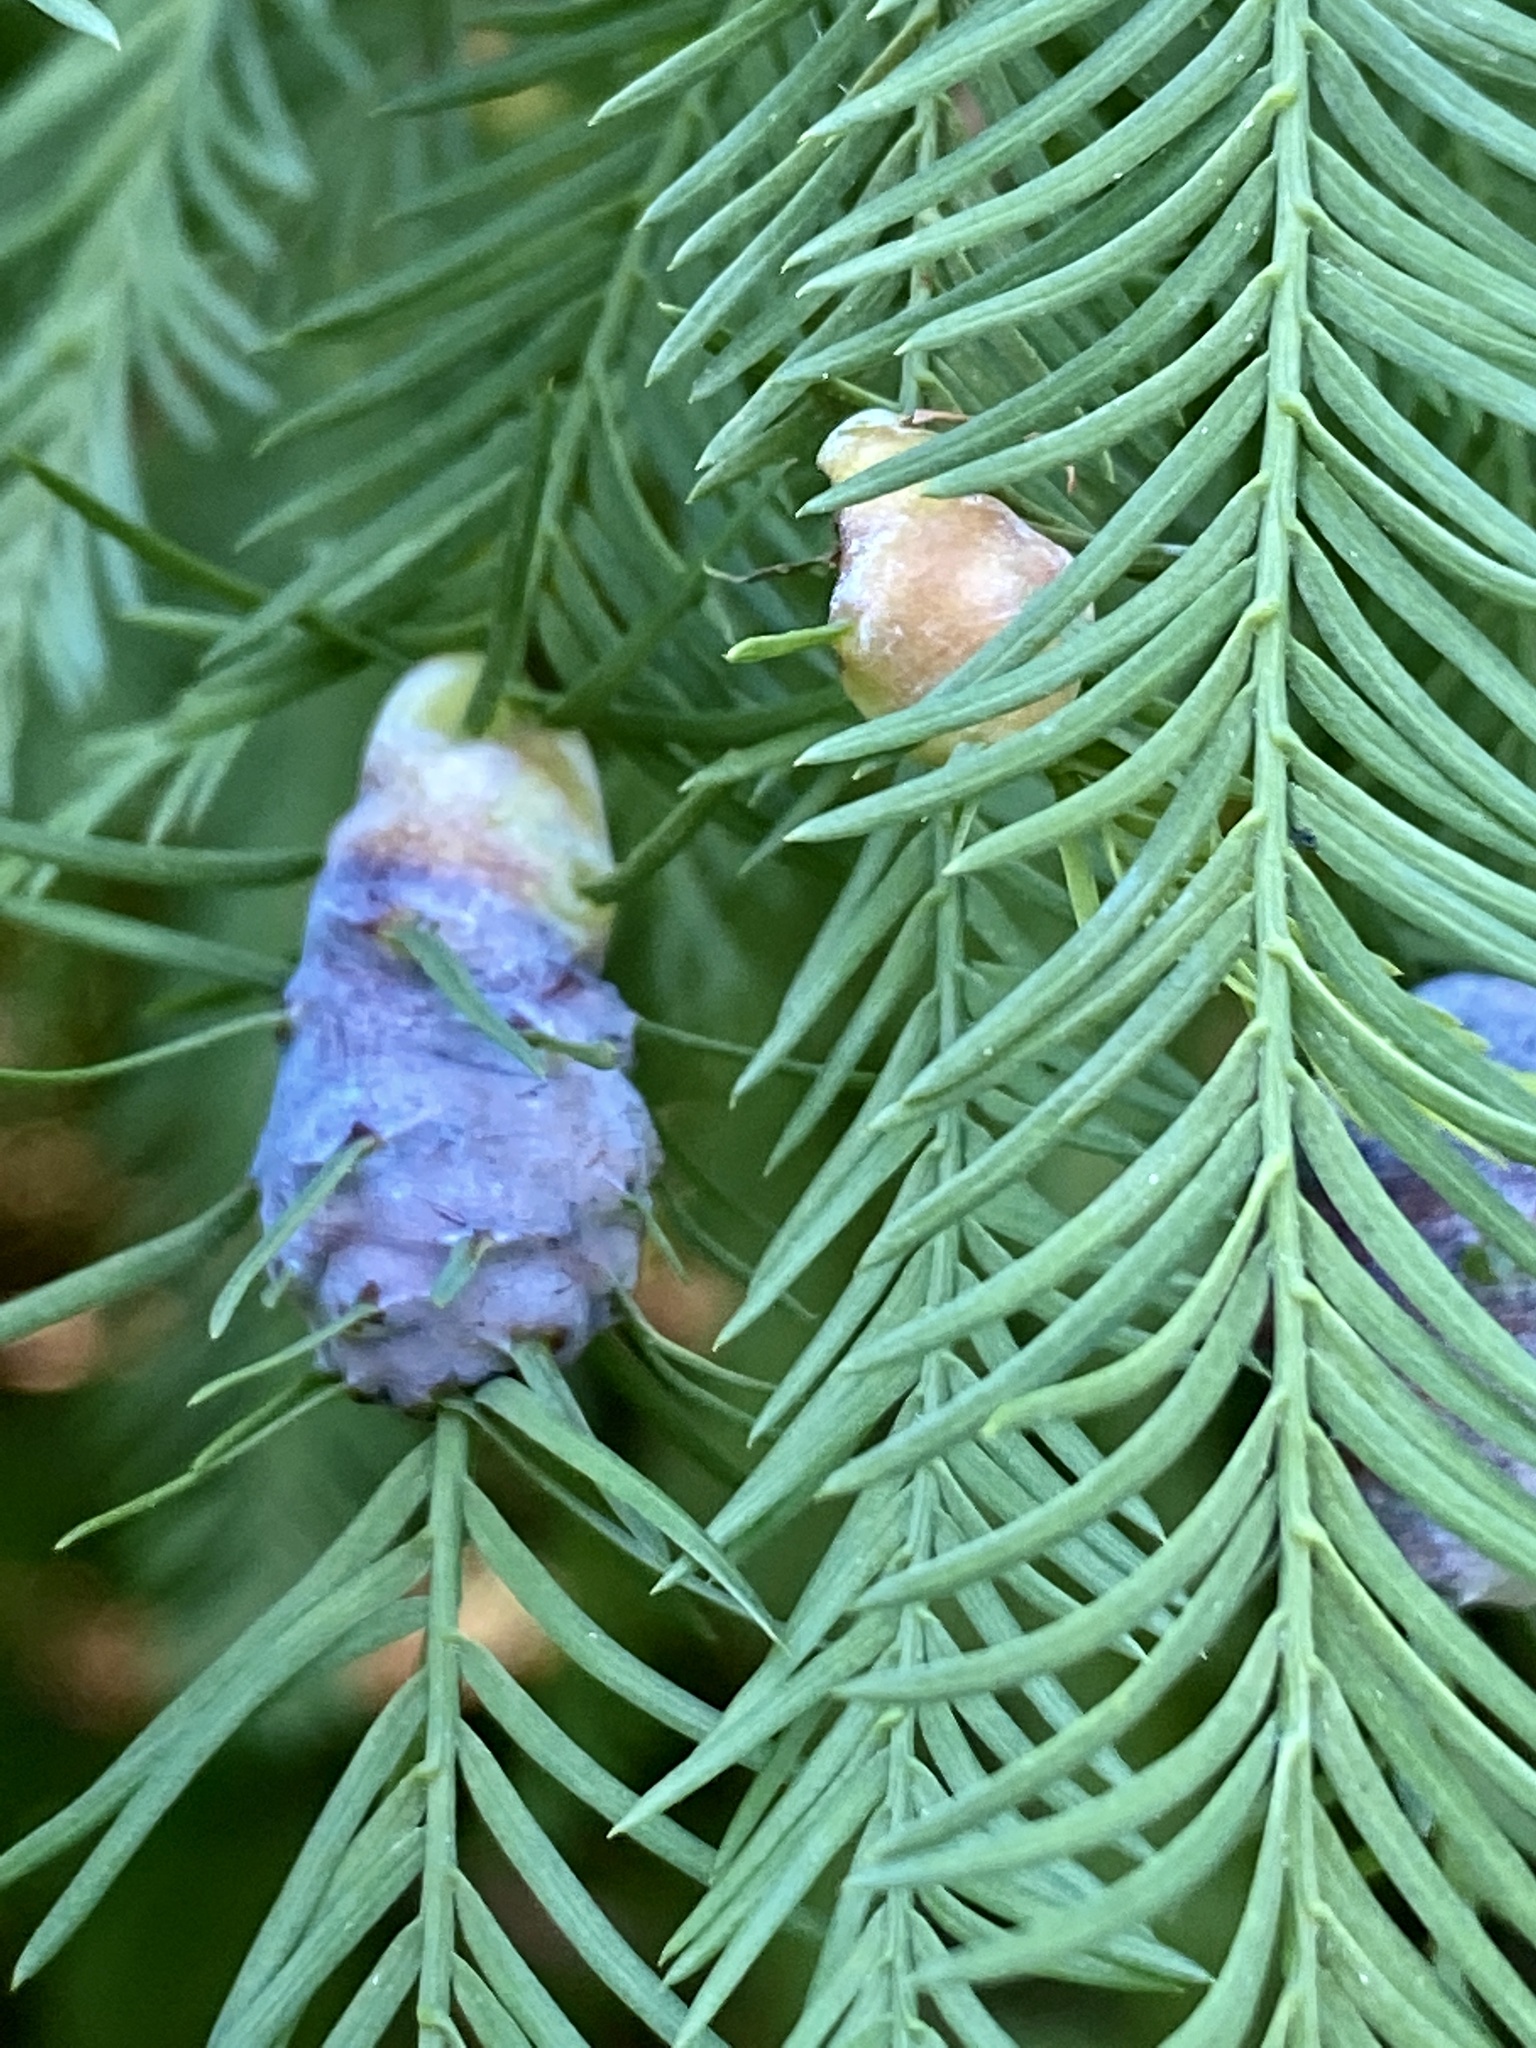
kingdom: Animalia
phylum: Arthropoda
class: Insecta
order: Diptera
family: Cecidomyiidae
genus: Taxodiomyia
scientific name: Taxodiomyia cupressiananassa
